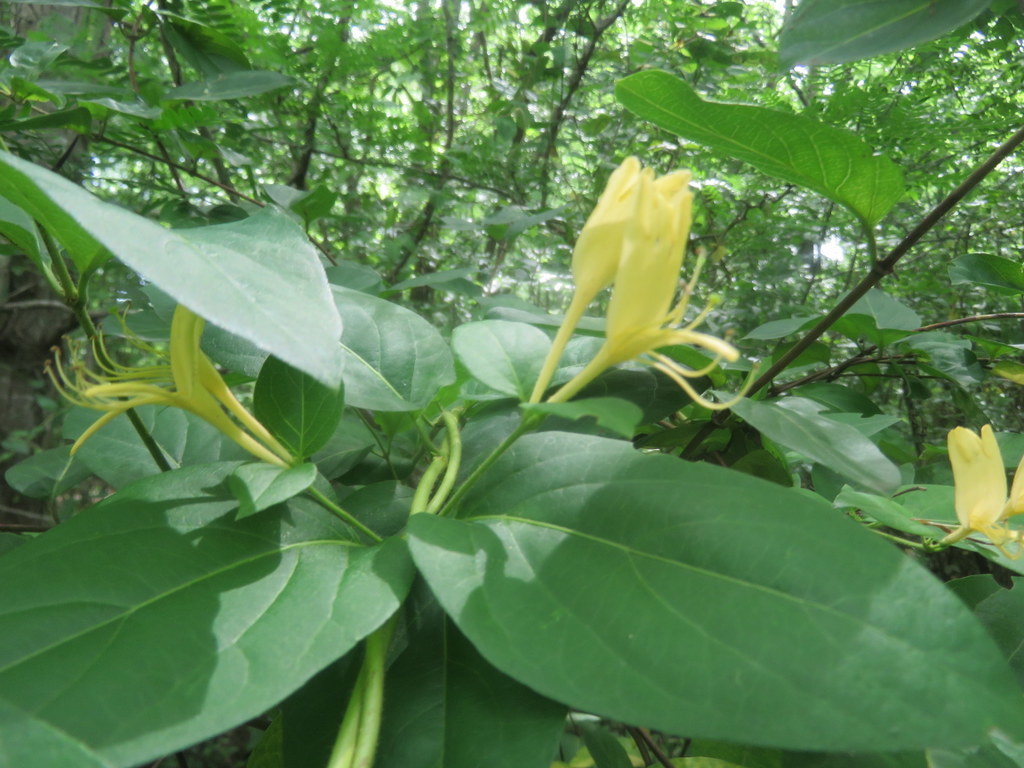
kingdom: Plantae
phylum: Tracheophyta
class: Magnoliopsida
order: Dipsacales
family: Caprifoliaceae
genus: Lonicera
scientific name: Lonicera japonica
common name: Japanese honeysuckle
